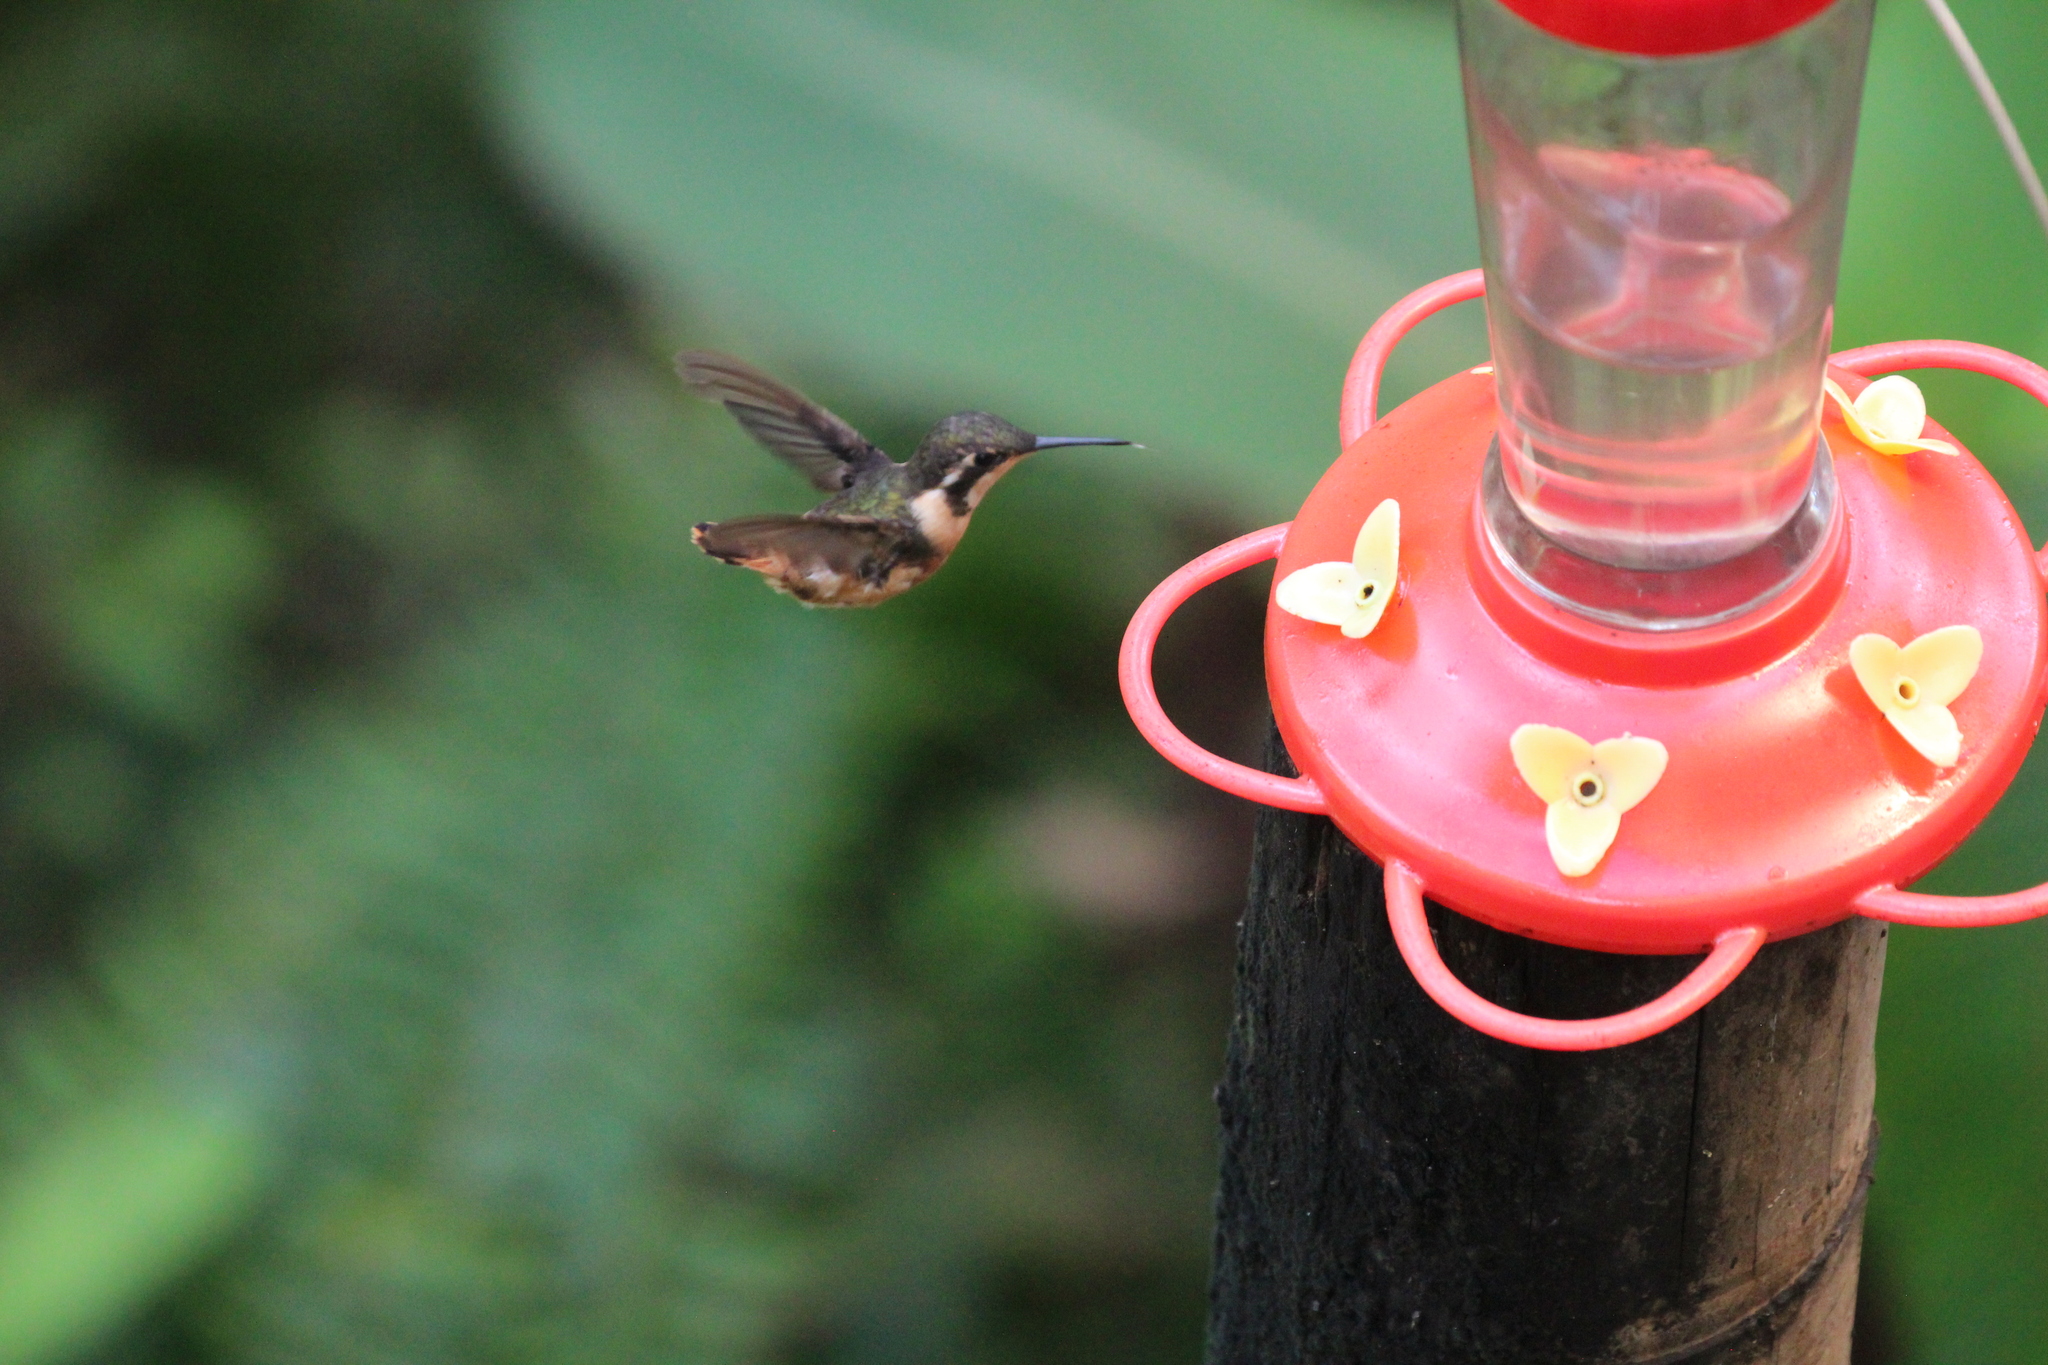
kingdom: Animalia
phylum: Chordata
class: Aves
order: Apodiformes
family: Trochilidae
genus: Calliphlox
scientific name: Calliphlox mitchellii
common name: Purple-throated woodstar
